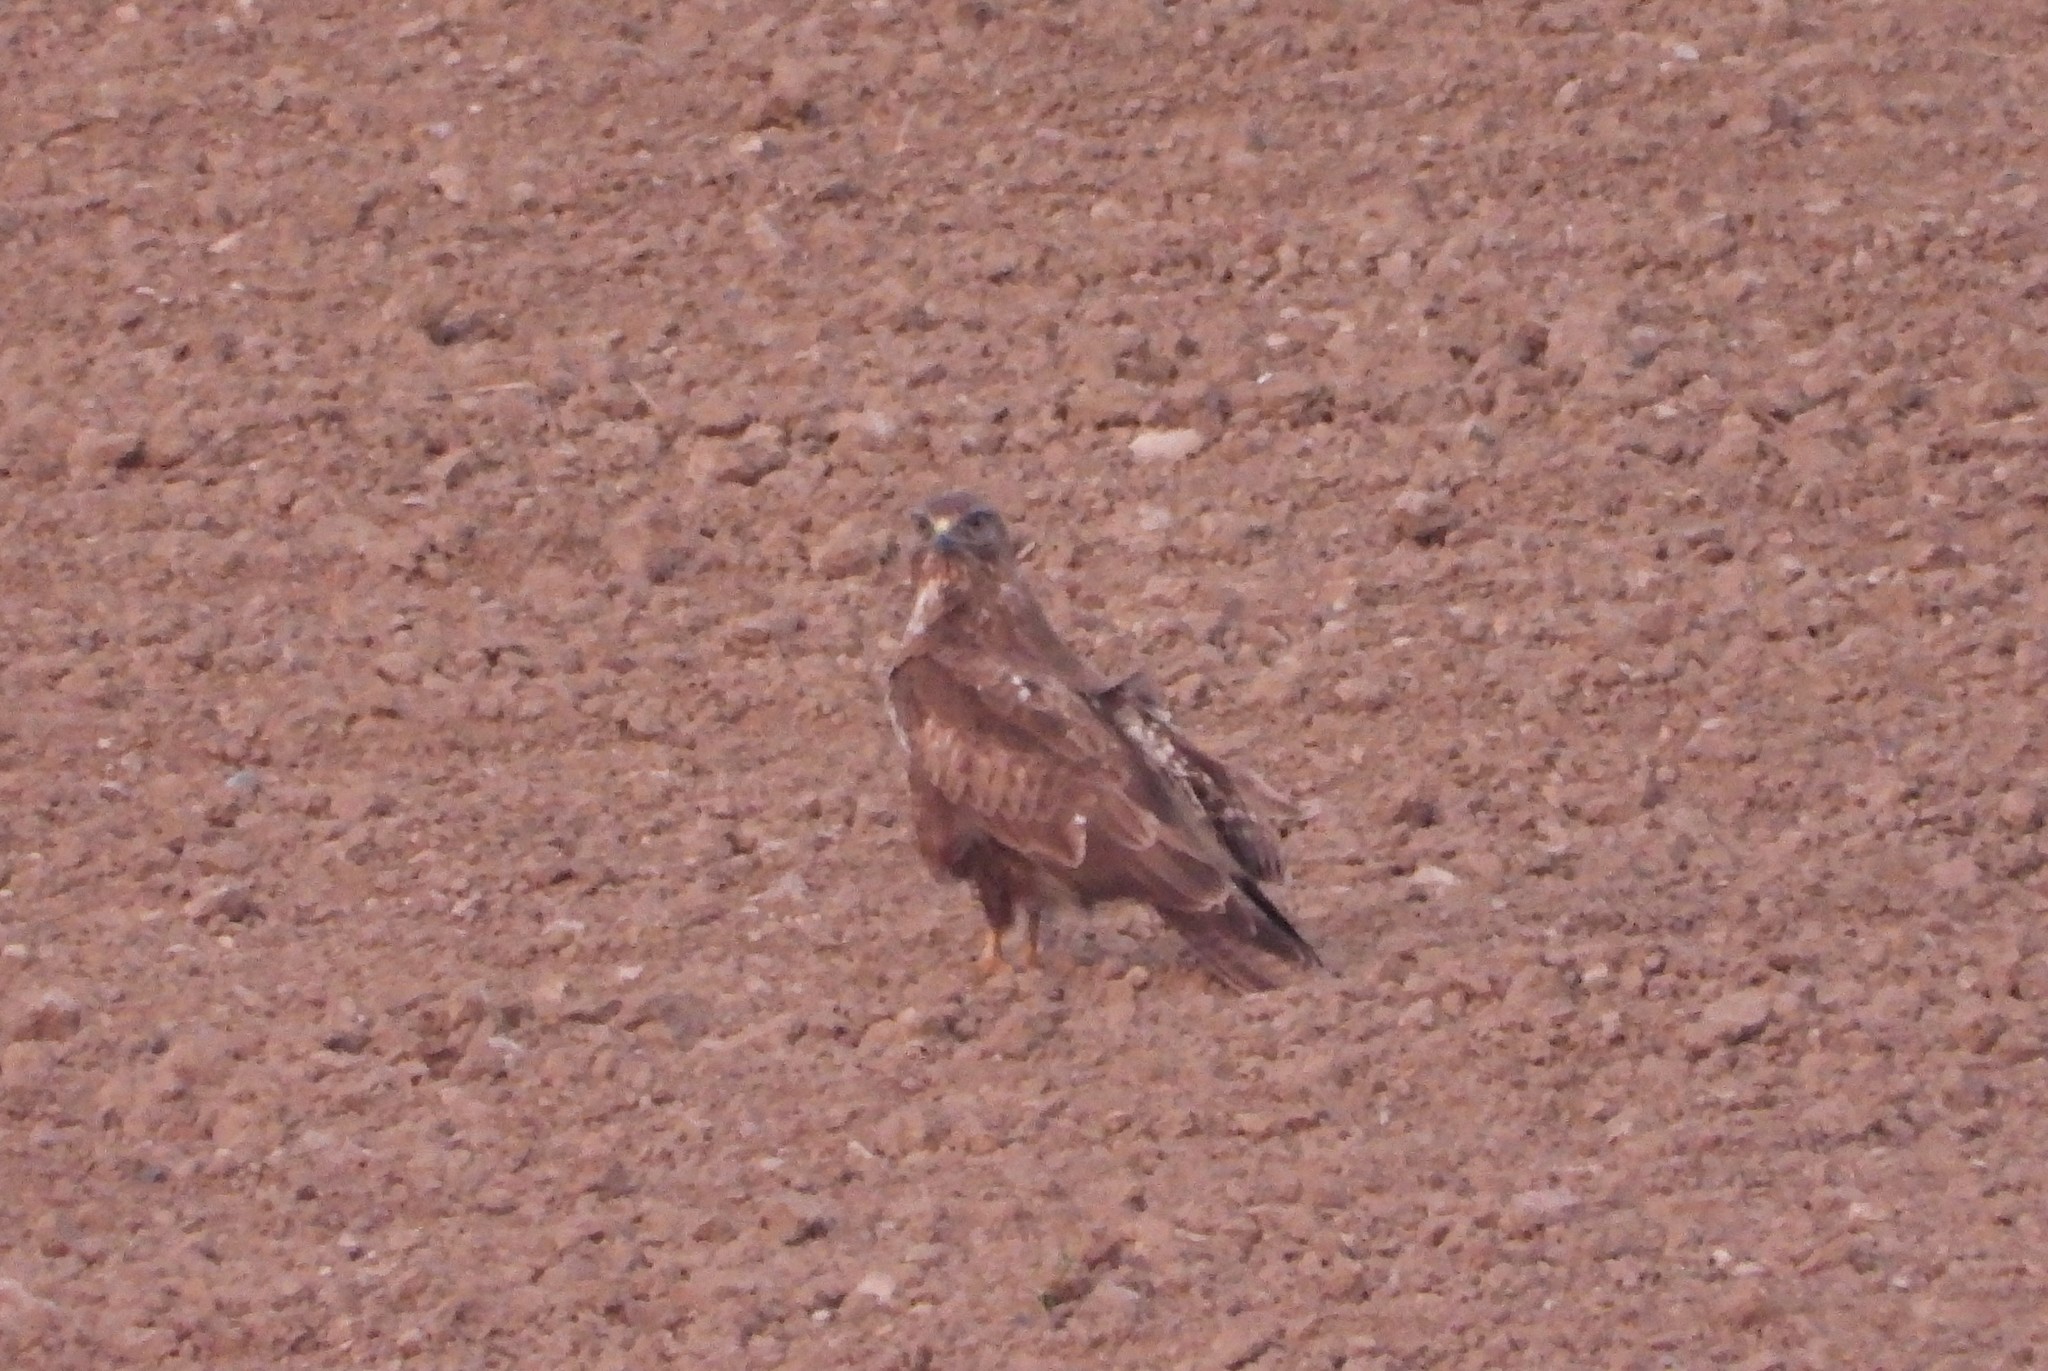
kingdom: Animalia
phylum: Chordata
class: Aves
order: Accipitriformes
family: Accipitridae
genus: Buteo
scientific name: Buteo buteo
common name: Common buzzard
